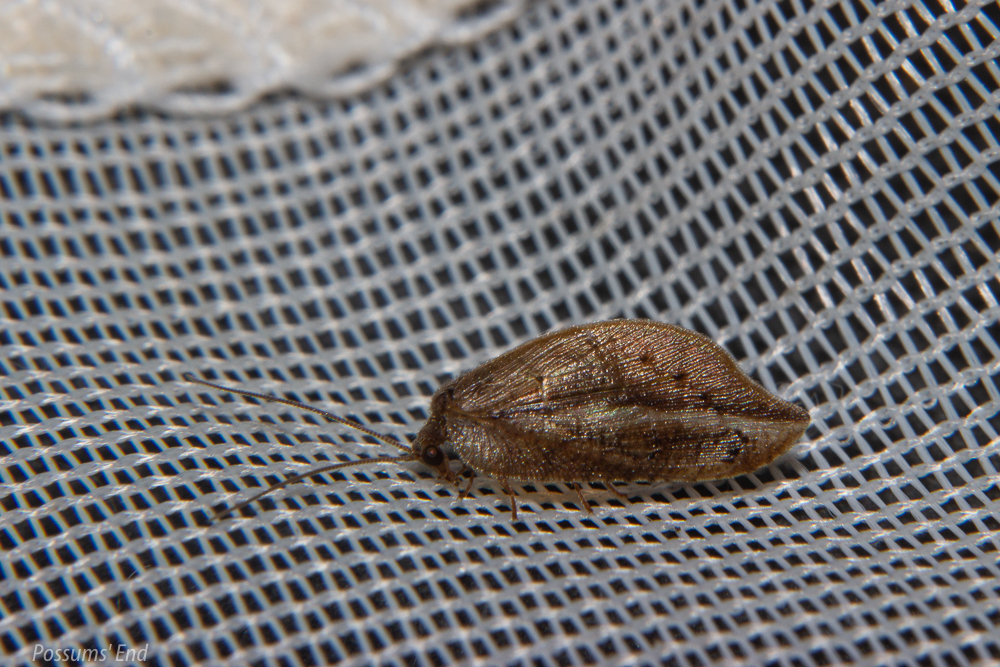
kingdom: Animalia
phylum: Arthropoda
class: Insecta
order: Neuroptera
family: Hemerobiidae
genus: Drepanacra
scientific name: Drepanacra binocula
